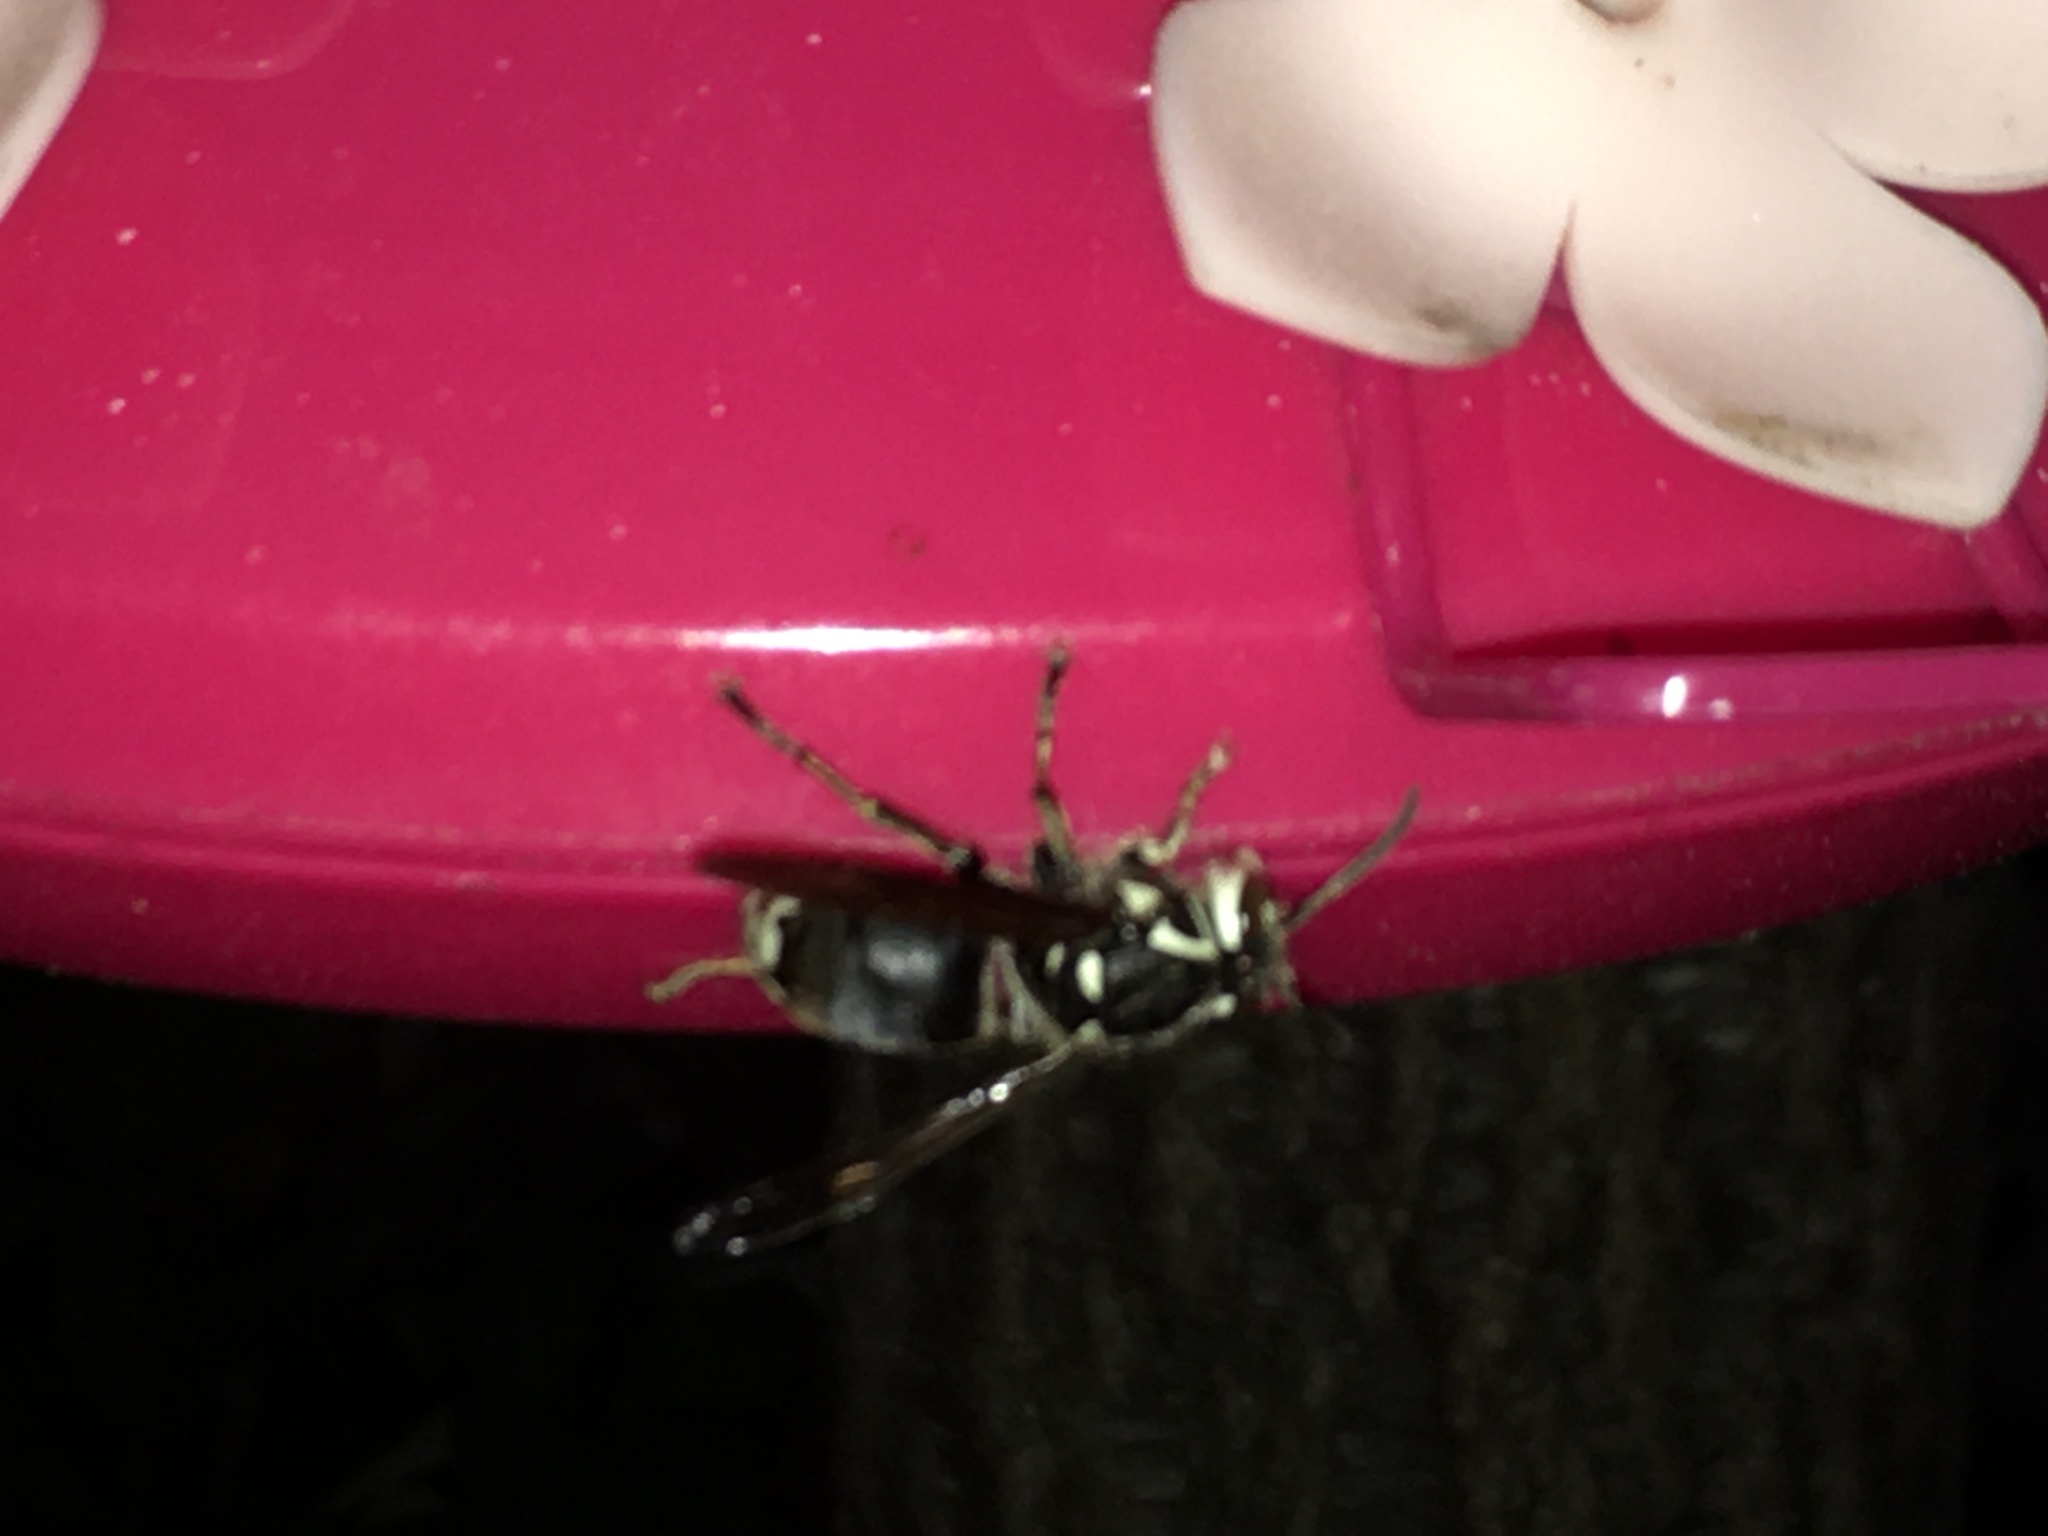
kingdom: Animalia
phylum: Arthropoda
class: Insecta
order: Hymenoptera
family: Vespidae
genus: Dolichovespula
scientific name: Dolichovespula maculata
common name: Bald-faced hornet
